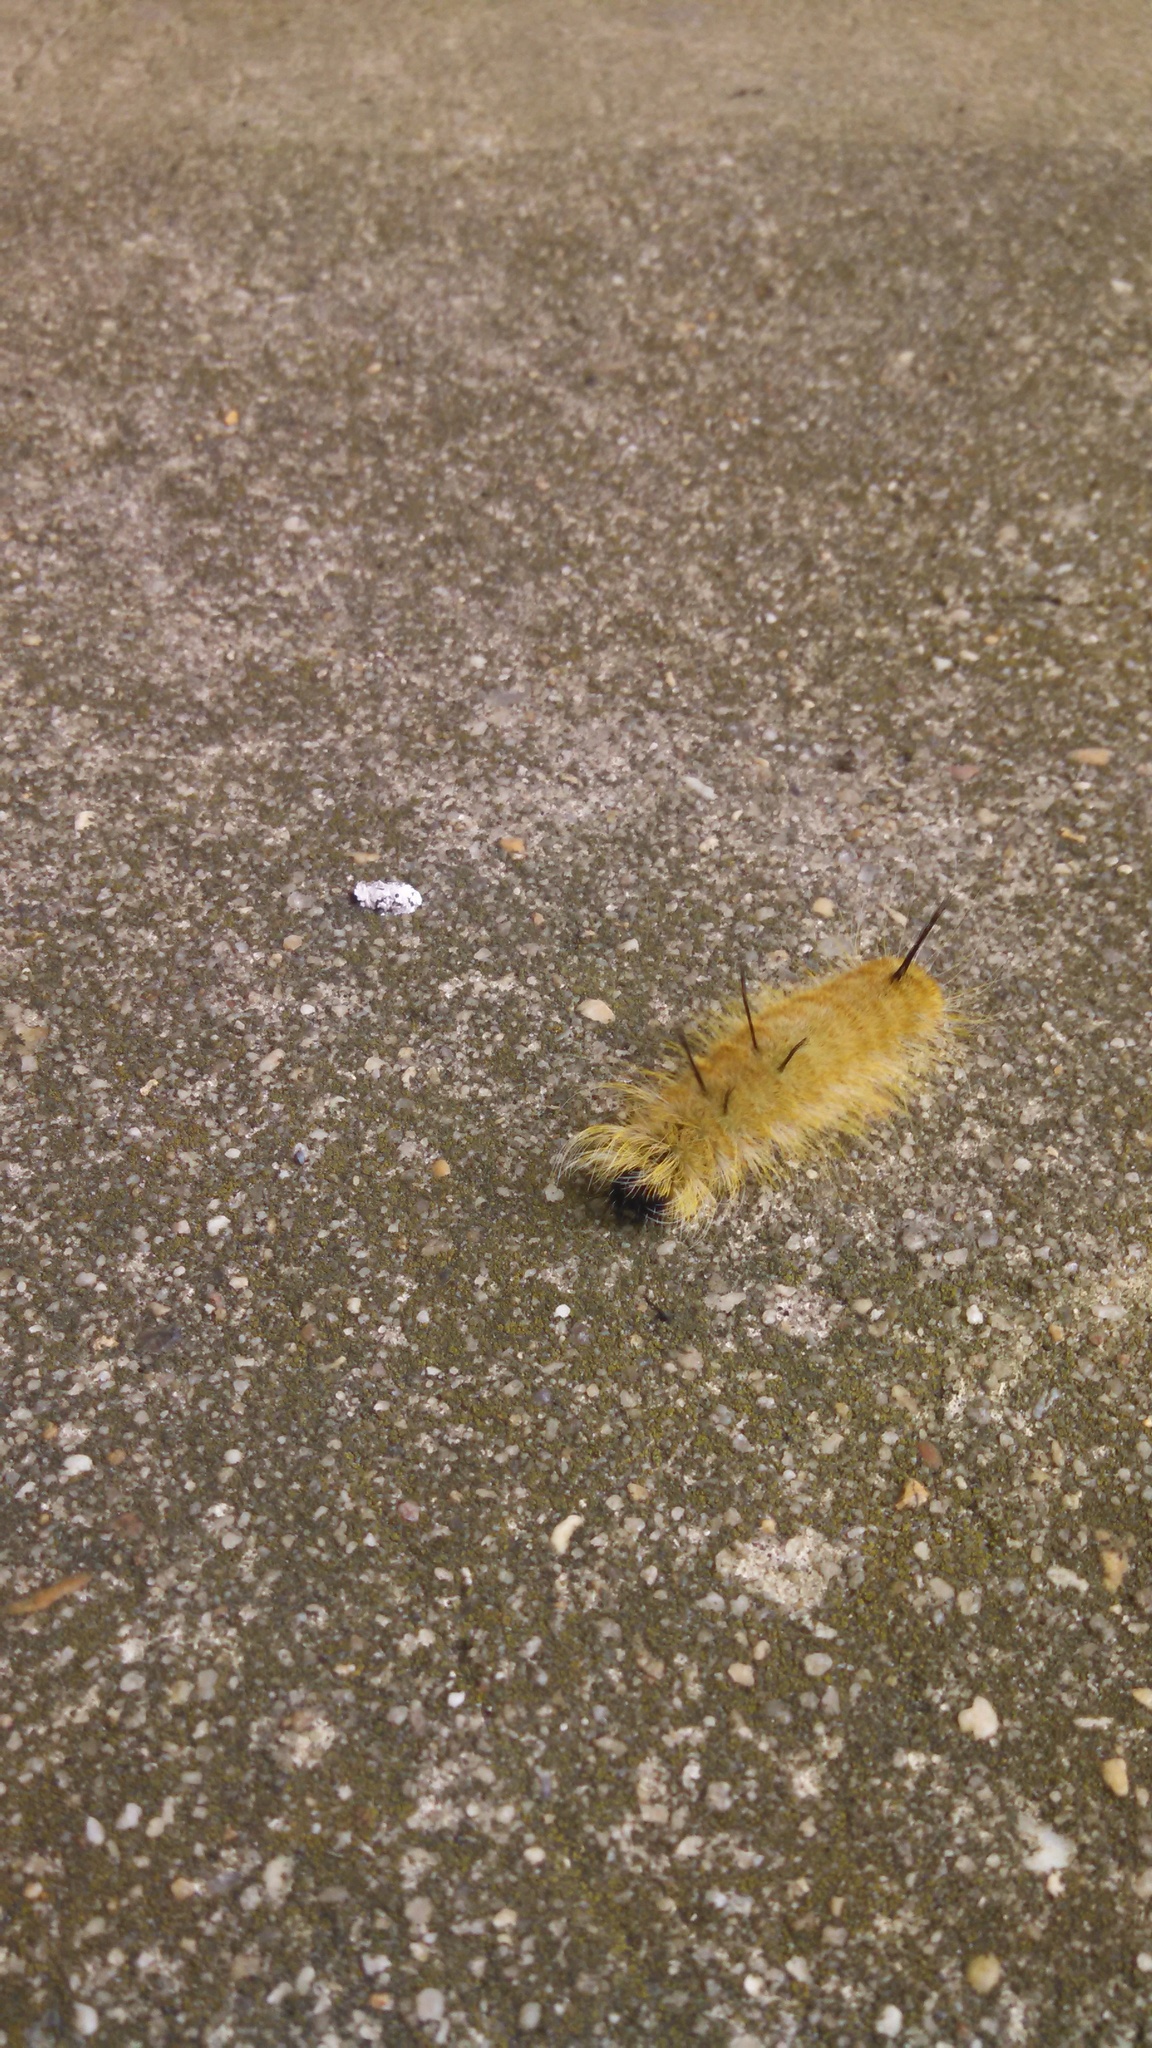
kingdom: Animalia
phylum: Arthropoda
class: Insecta
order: Lepidoptera
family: Noctuidae
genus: Acronicta
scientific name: Acronicta americana
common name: American dagger
